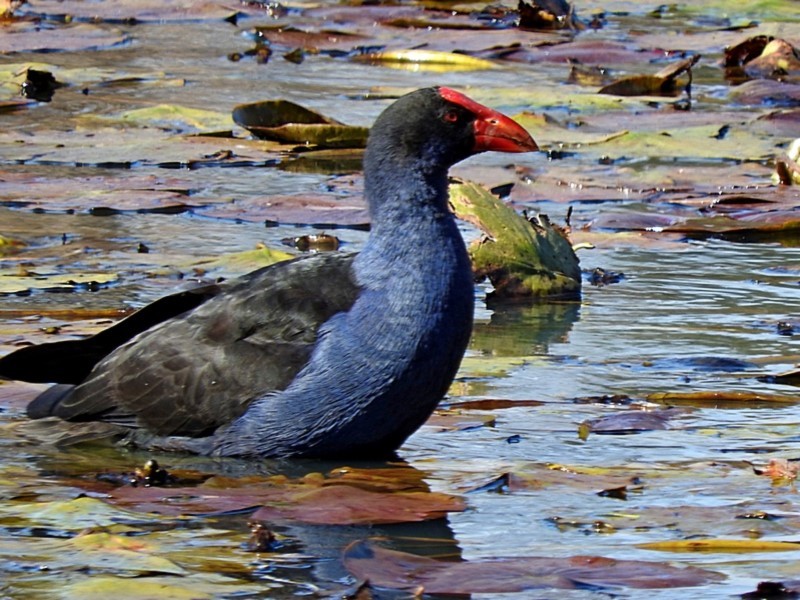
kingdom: Animalia
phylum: Chordata
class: Aves
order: Gruiformes
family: Rallidae
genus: Porphyrio
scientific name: Porphyrio melanotus
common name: Australasian swamphen
